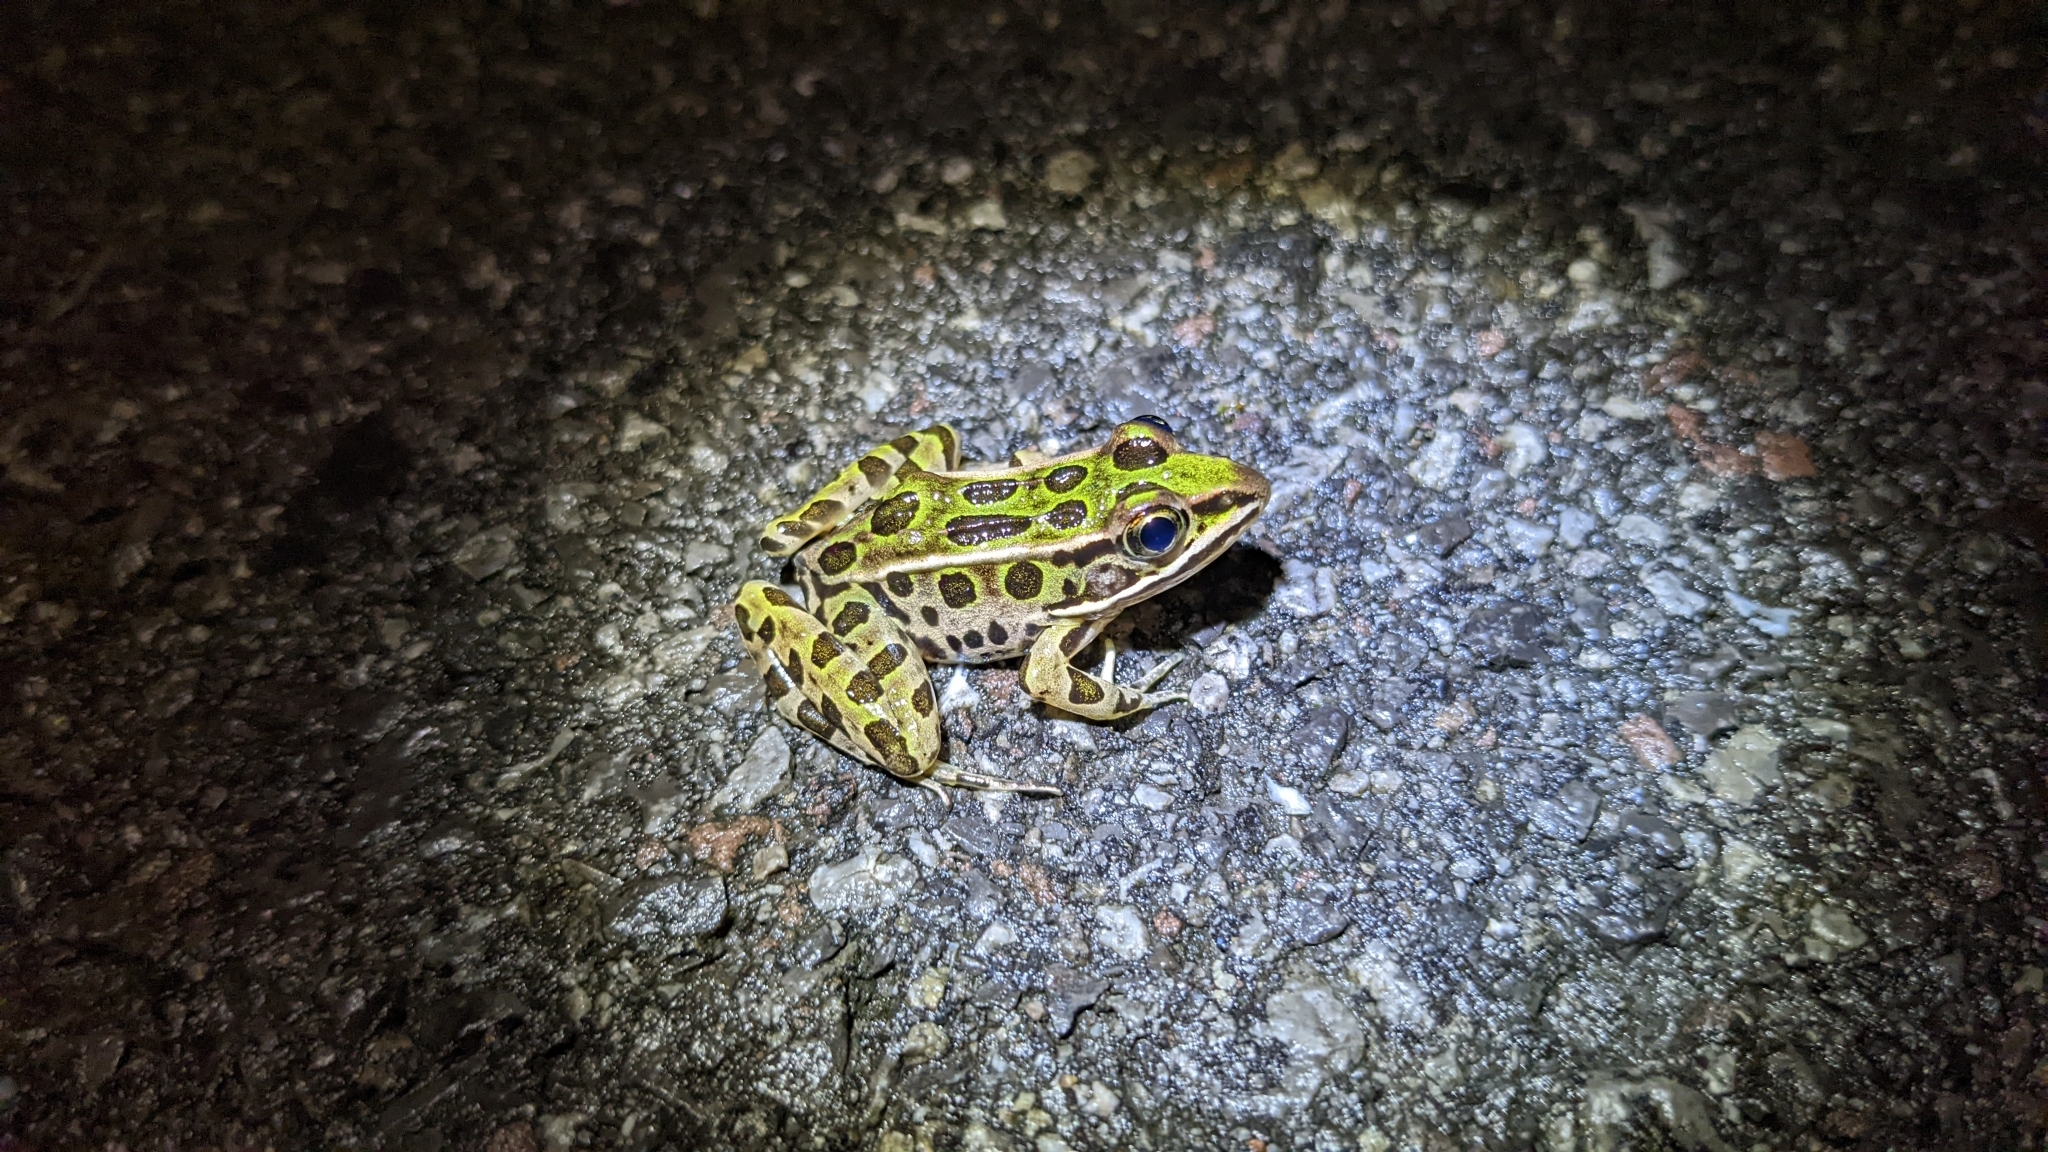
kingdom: Animalia
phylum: Chordata
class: Amphibia
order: Anura
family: Ranidae
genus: Lithobates
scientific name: Lithobates pipiens
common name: Northern leopard frog
